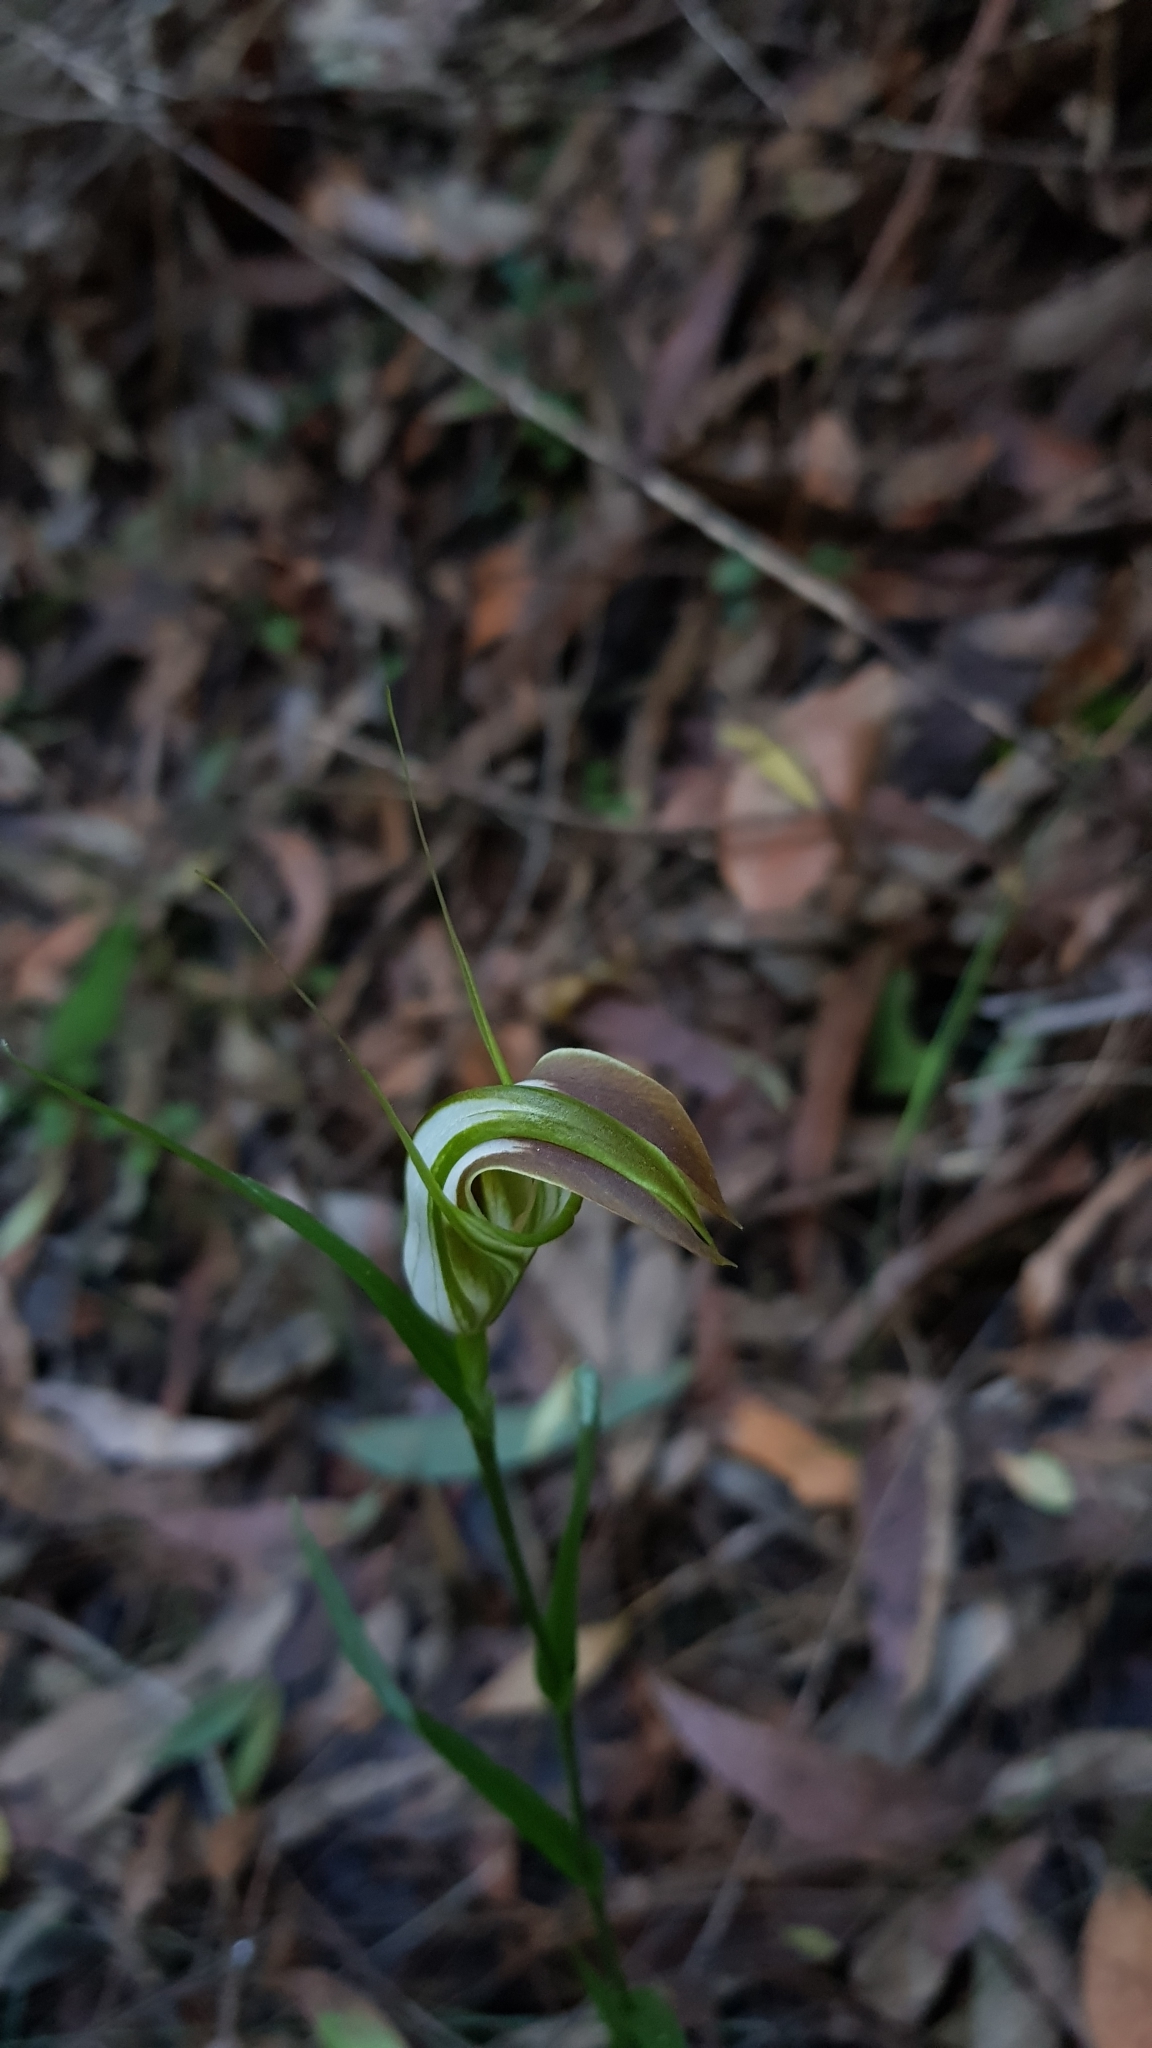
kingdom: Plantae
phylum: Tracheophyta
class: Liliopsida
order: Asparagales
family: Orchidaceae
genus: Pterostylis
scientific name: Pterostylis grandiflora
